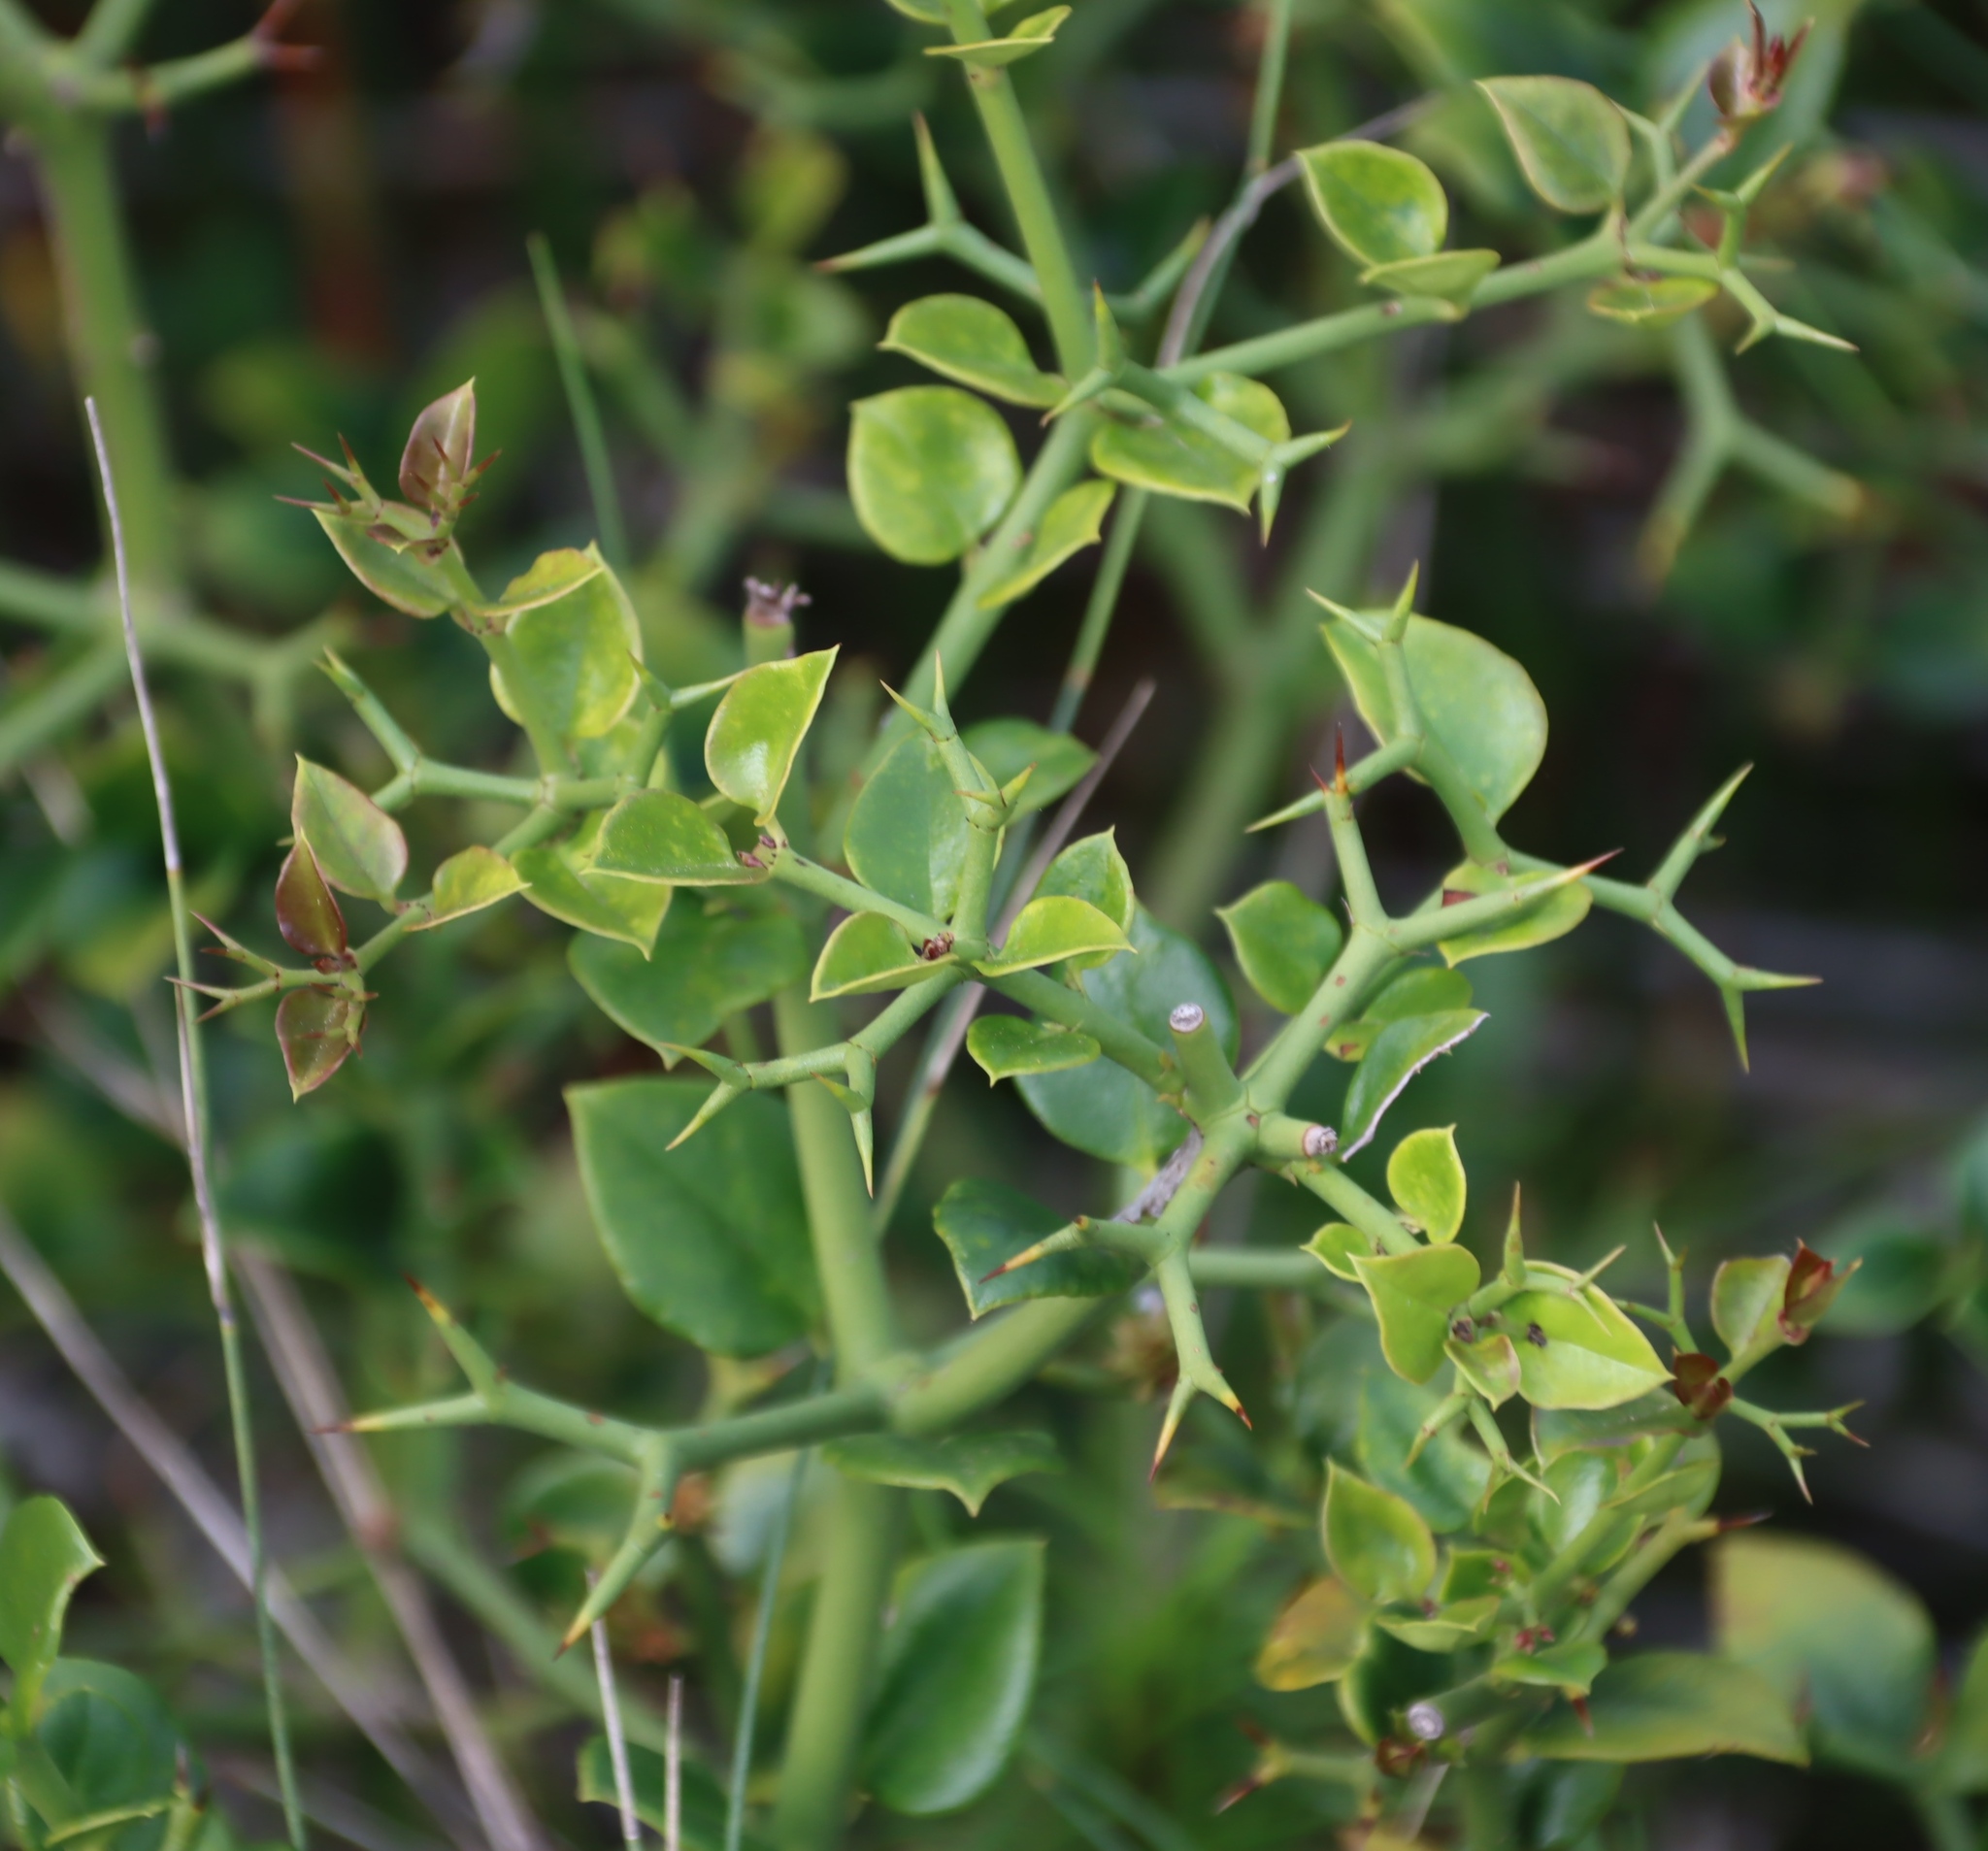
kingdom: Plantae
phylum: Tracheophyta
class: Magnoliopsida
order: Gentianales
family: Apocynaceae
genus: Carissa
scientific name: Carissa bispinosa
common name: Forest num-num
